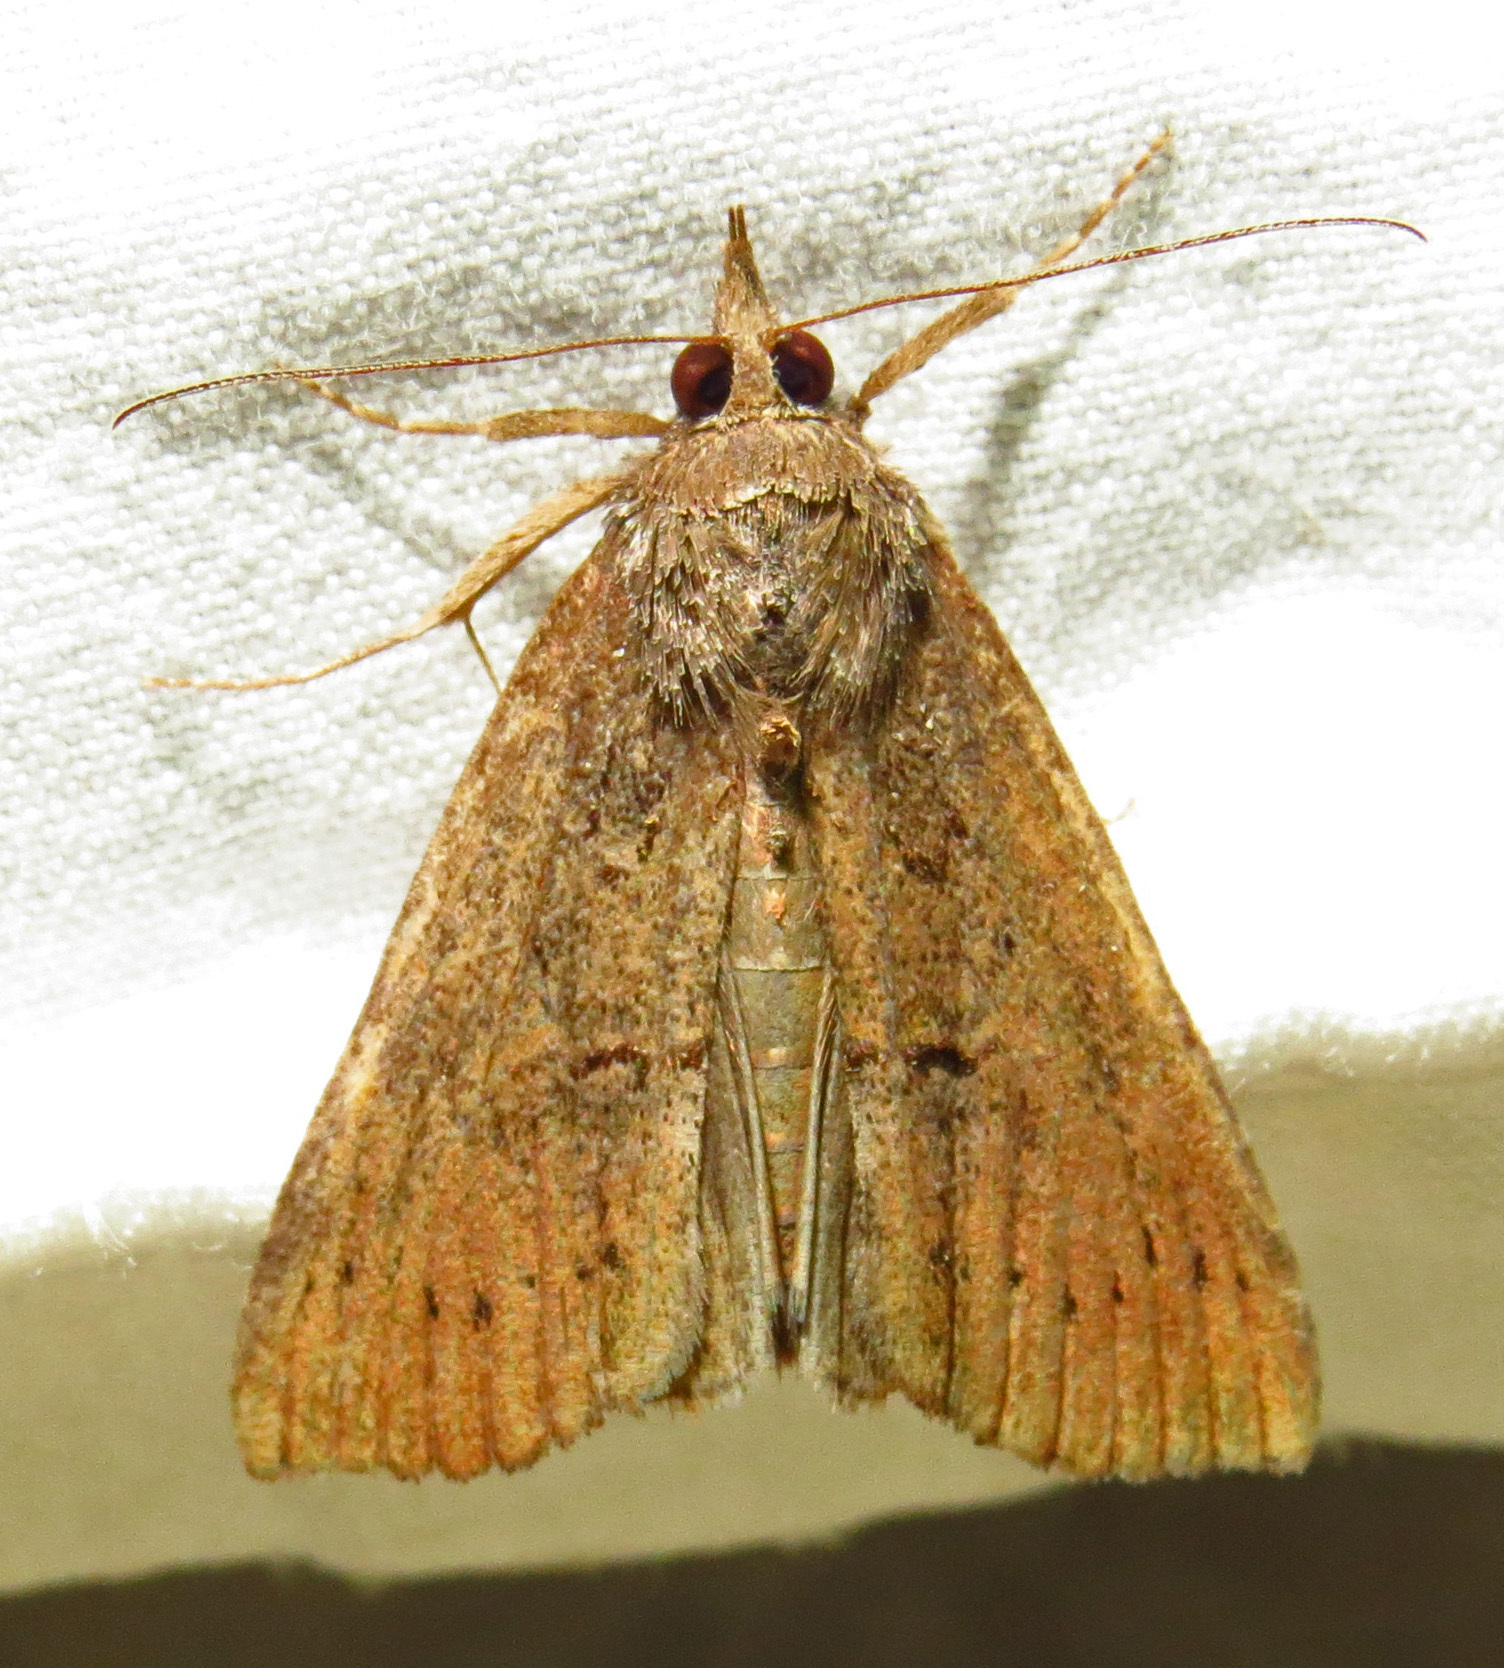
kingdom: Animalia
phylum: Arthropoda
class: Insecta
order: Lepidoptera
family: Erebidae
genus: Hypena
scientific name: Hypena scabra
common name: Green cloverworm
